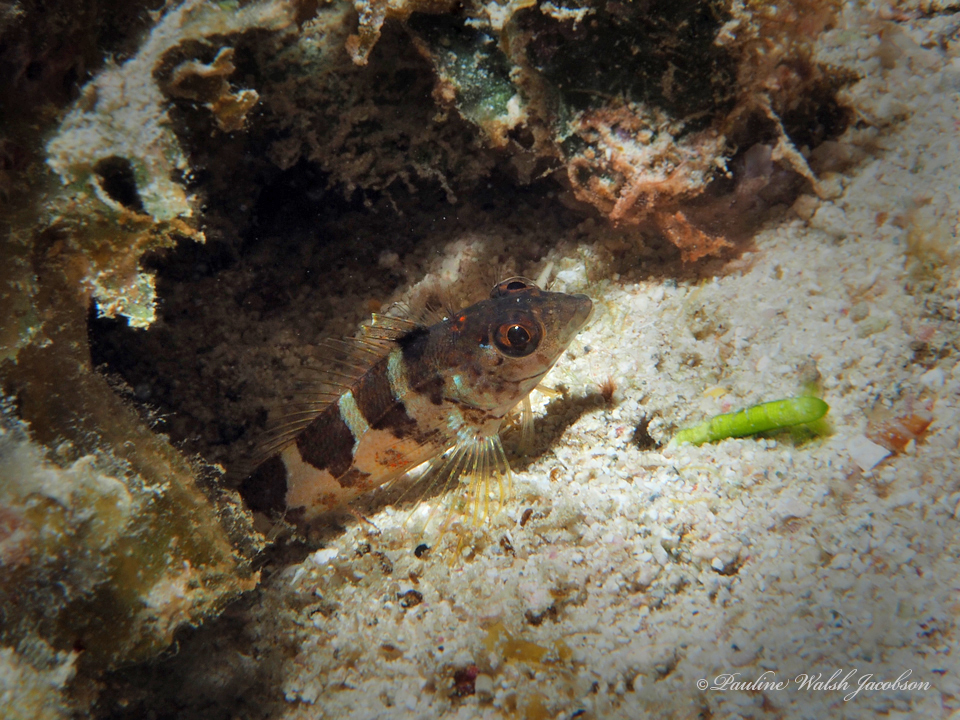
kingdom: Animalia
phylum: Chordata
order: Perciformes
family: Labrisomidae
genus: Malacoctenus
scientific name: Malacoctenus triangulatus
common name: Saddled blenny
